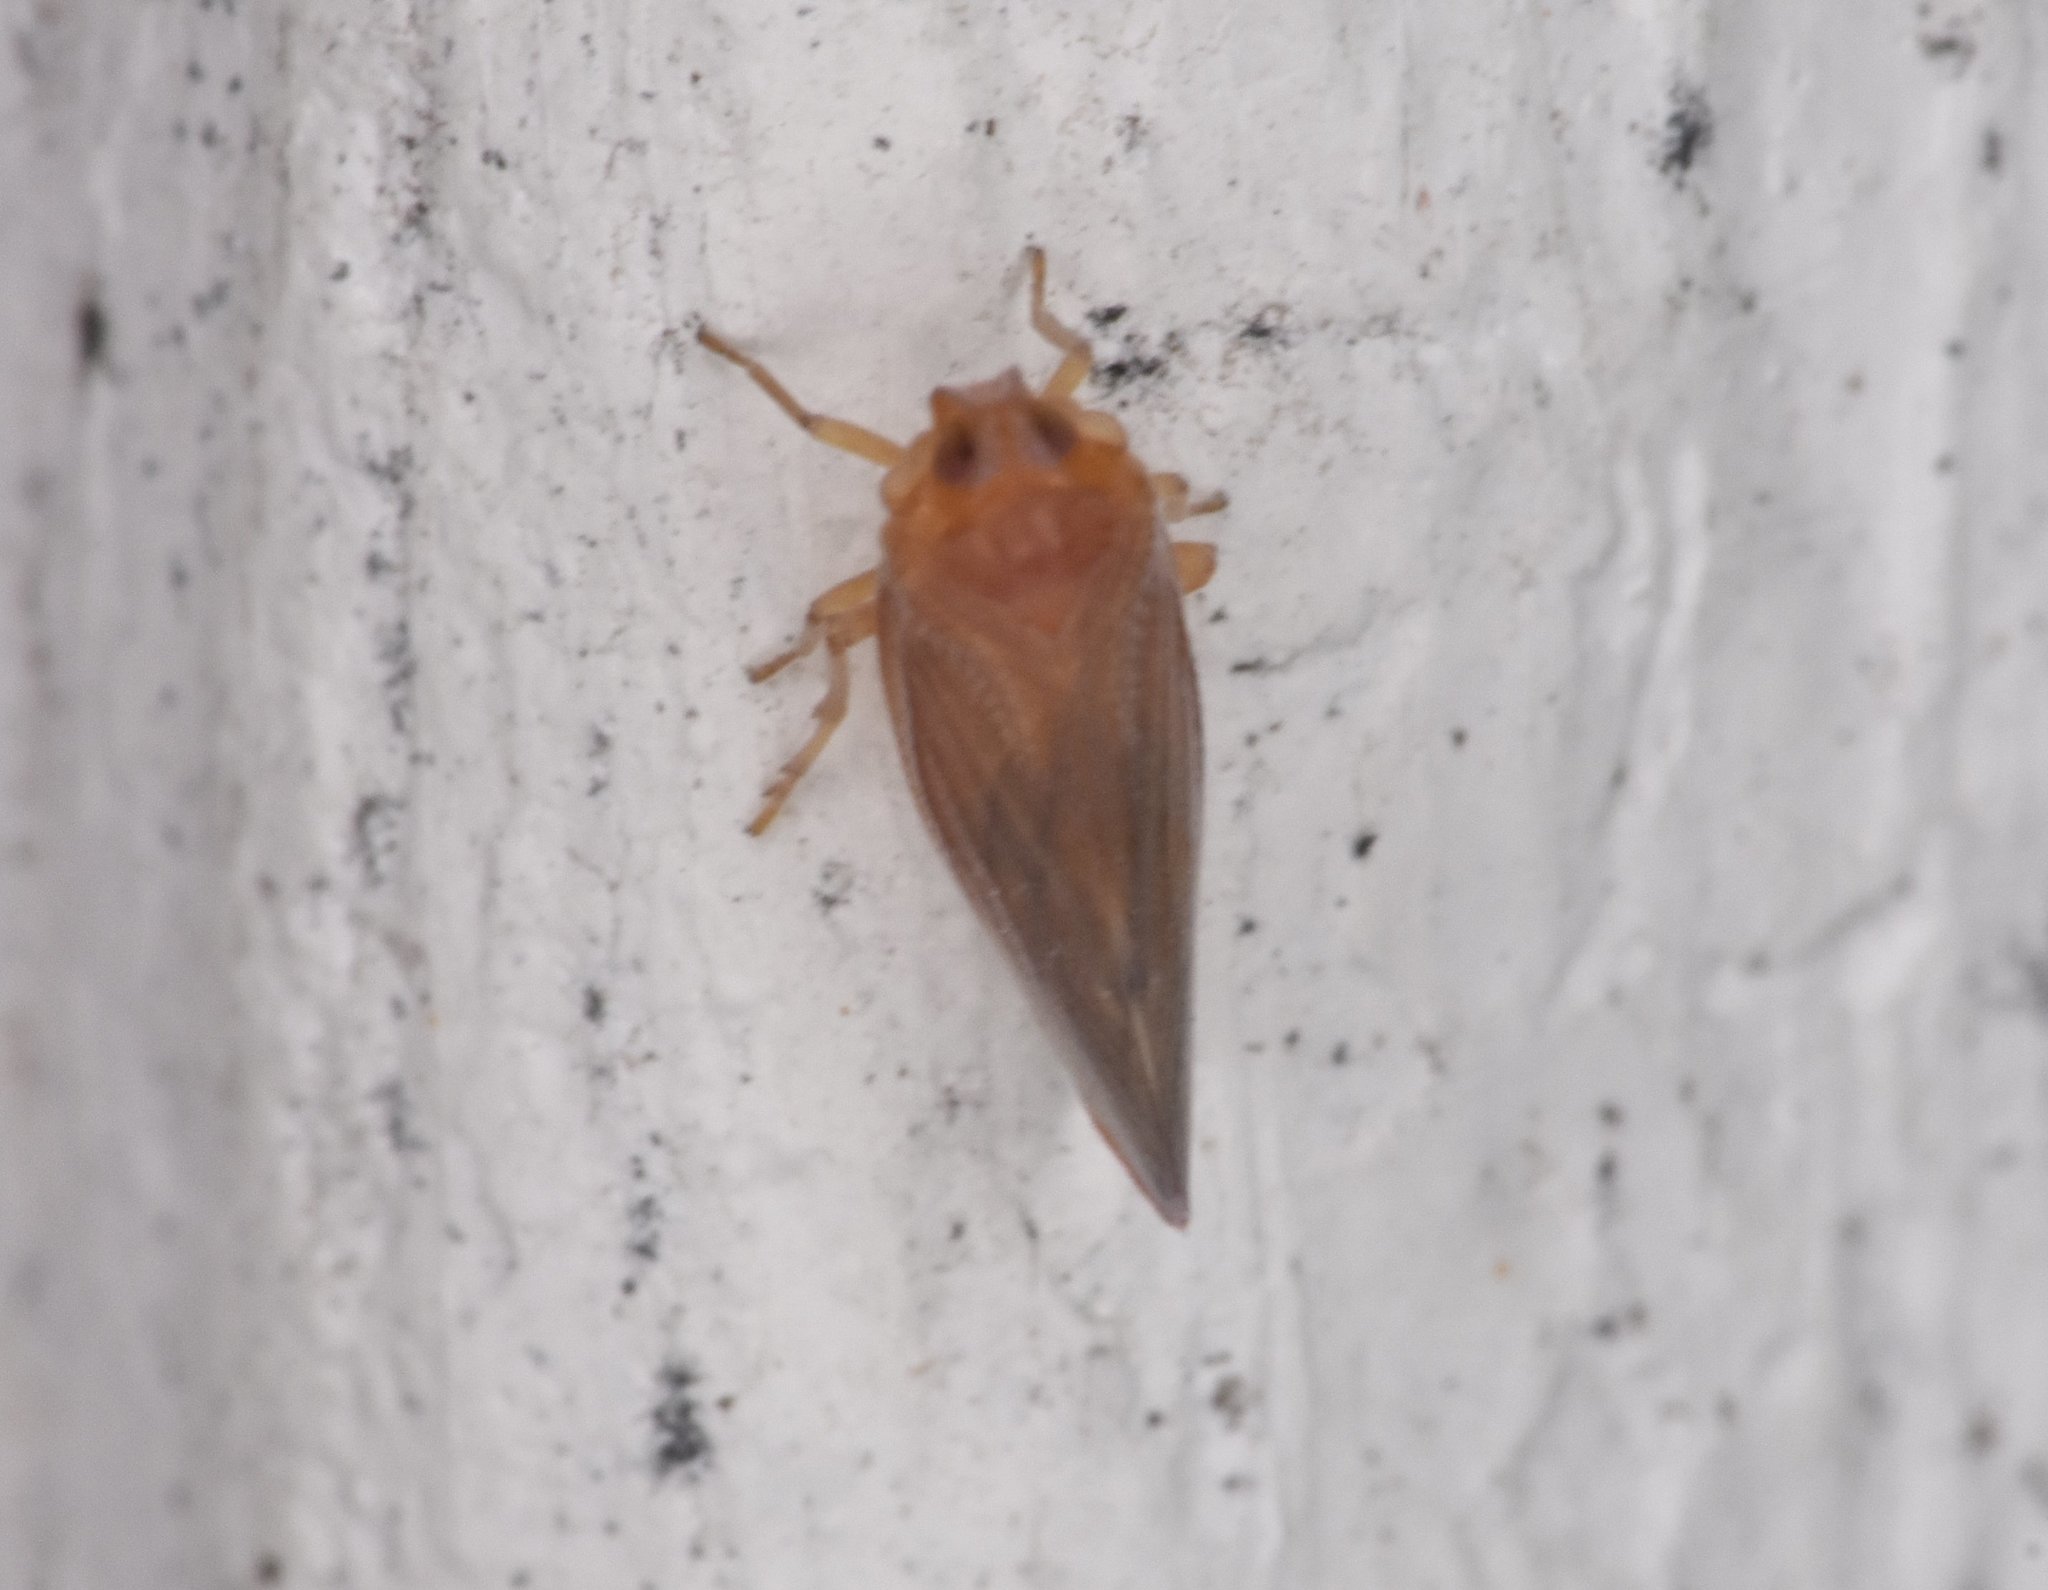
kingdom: Animalia
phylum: Arthropoda
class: Insecta
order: Hemiptera
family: Derbidae
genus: Omolicna
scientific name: Omolicna mcateei
